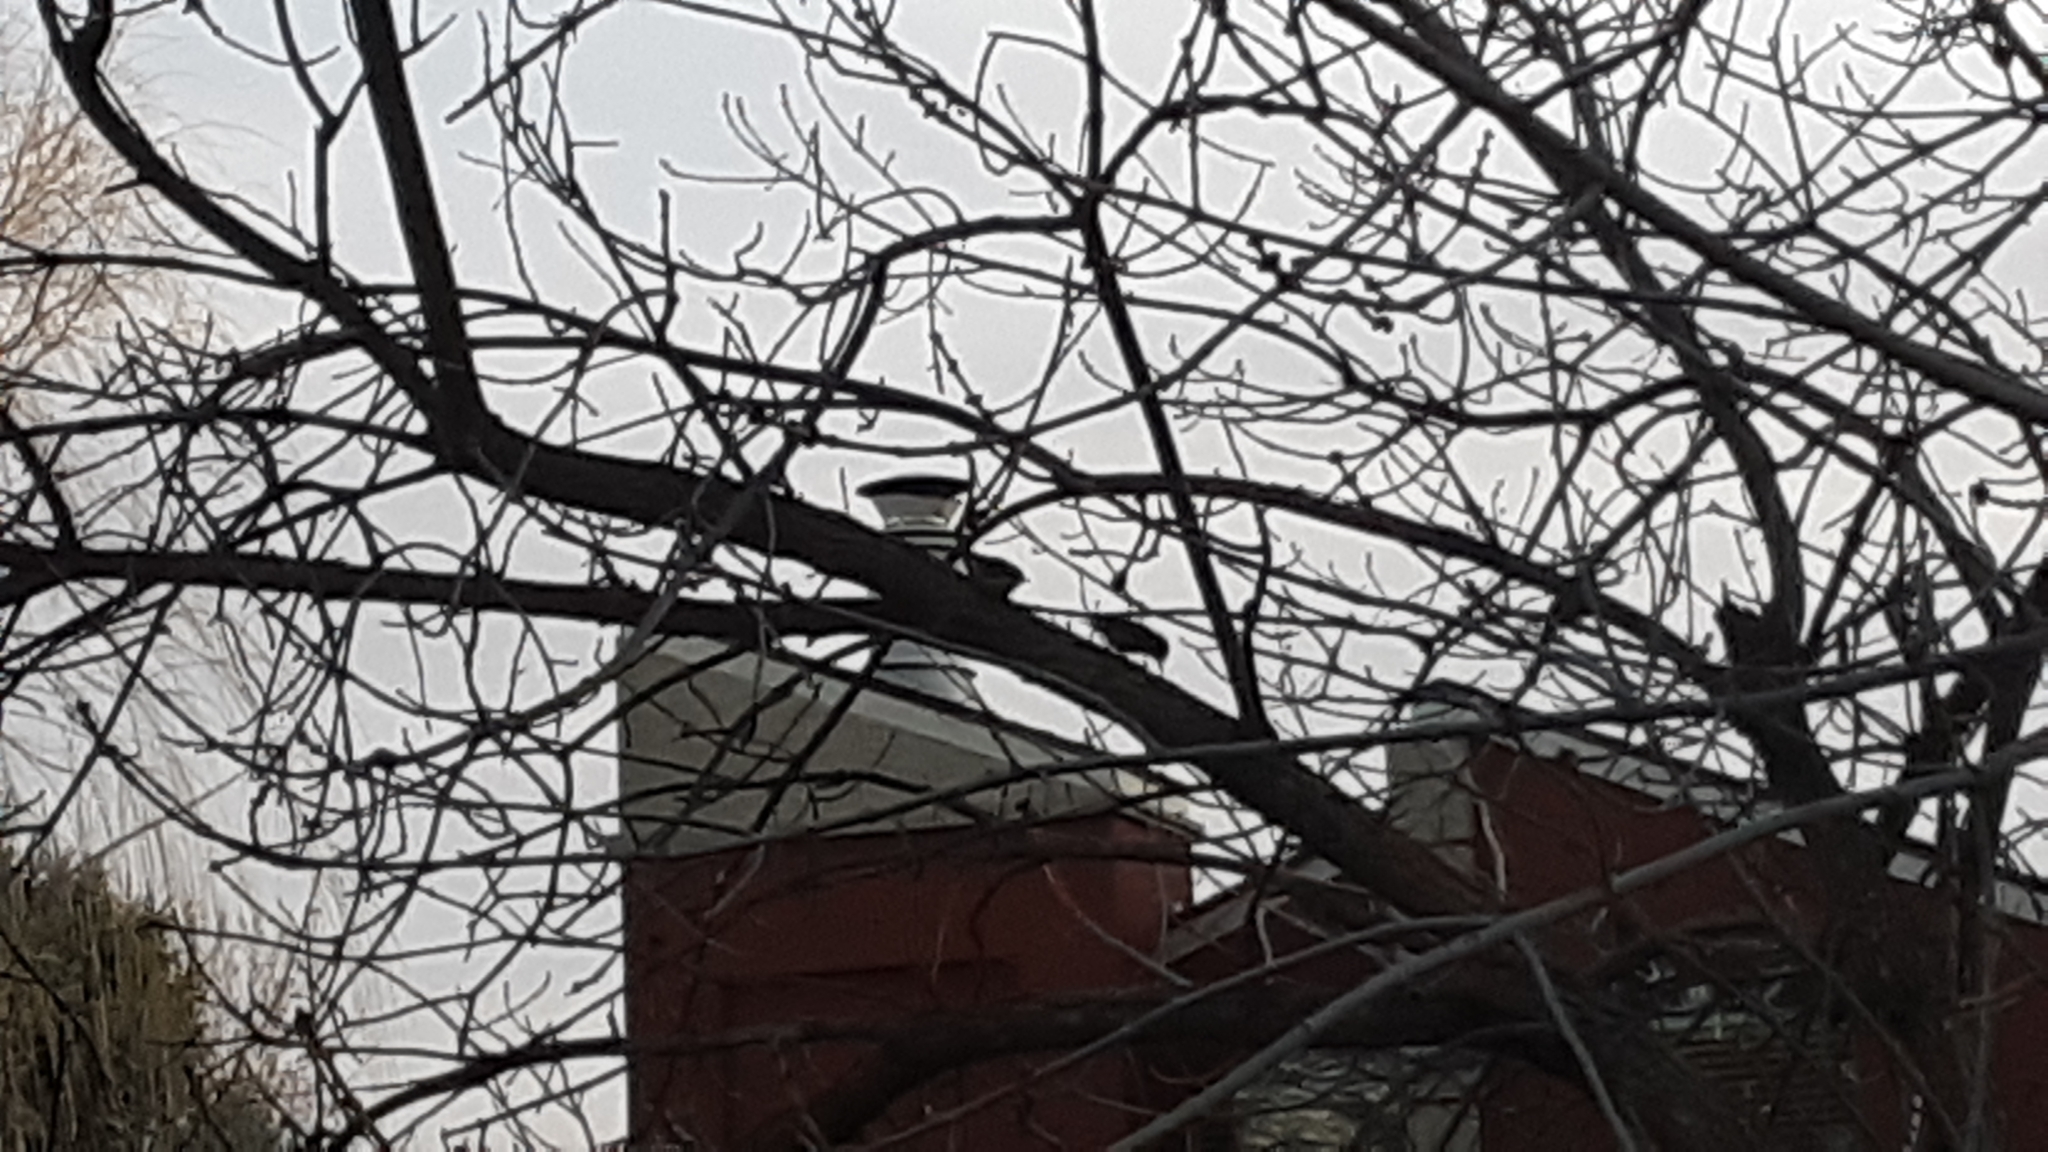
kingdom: Animalia
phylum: Chordata
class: Aves
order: Passeriformes
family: Sittidae
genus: Sitta
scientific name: Sitta canadensis
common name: Red-breasted nuthatch
